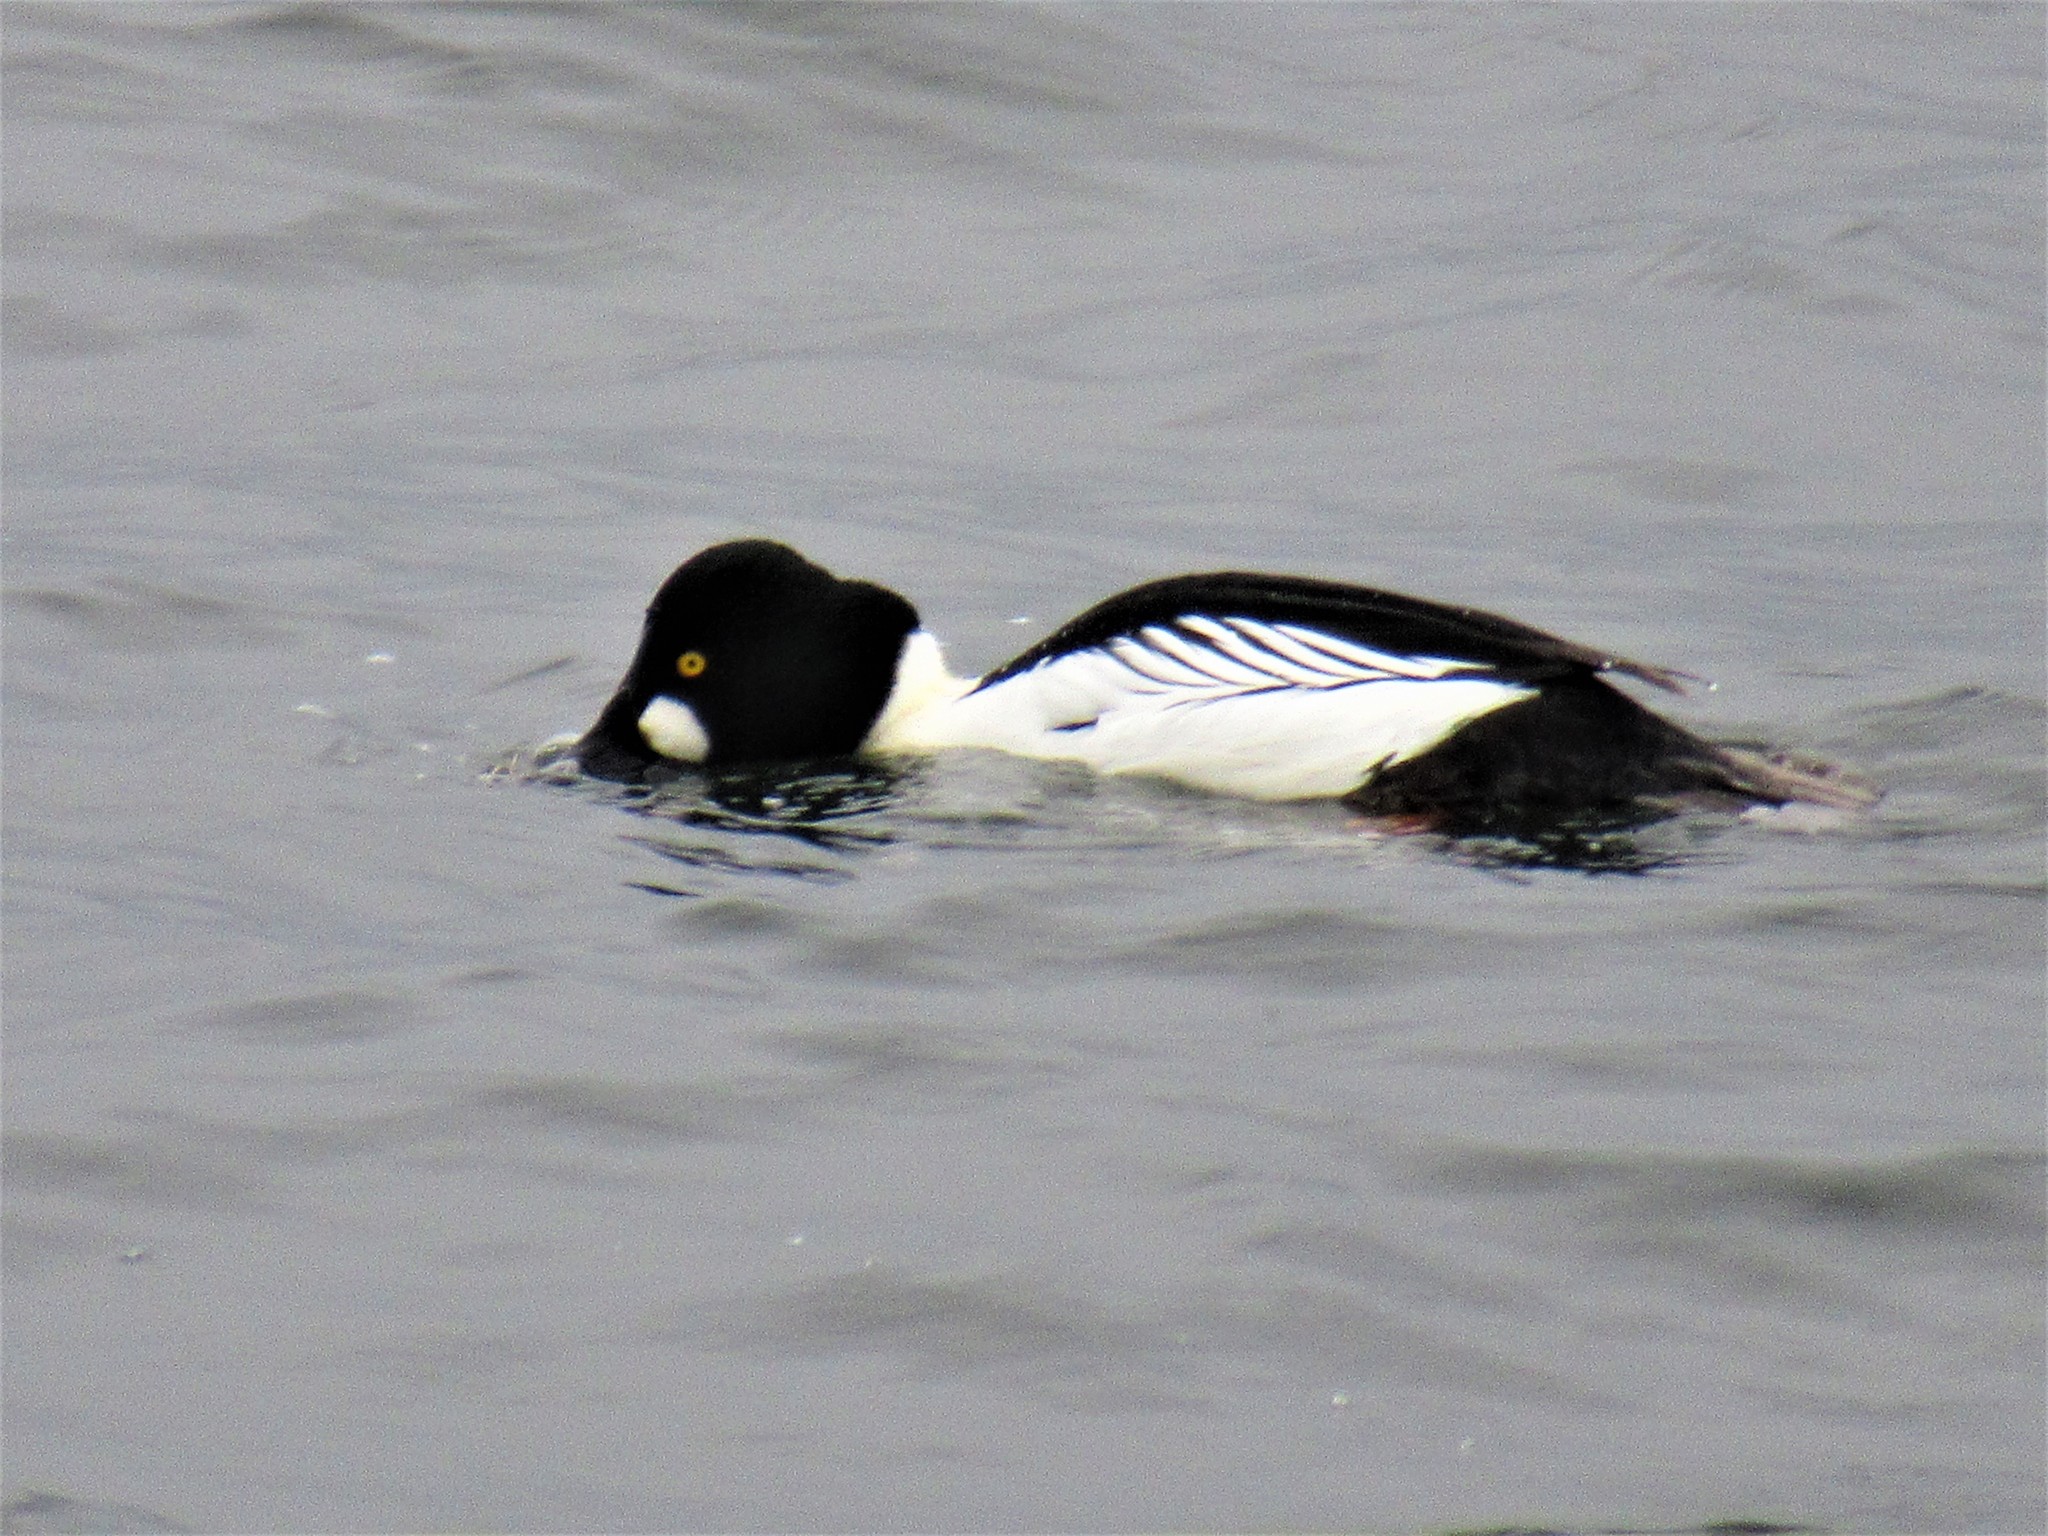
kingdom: Animalia
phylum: Chordata
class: Aves
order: Anseriformes
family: Anatidae
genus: Bucephala
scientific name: Bucephala clangula
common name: Common goldeneye
